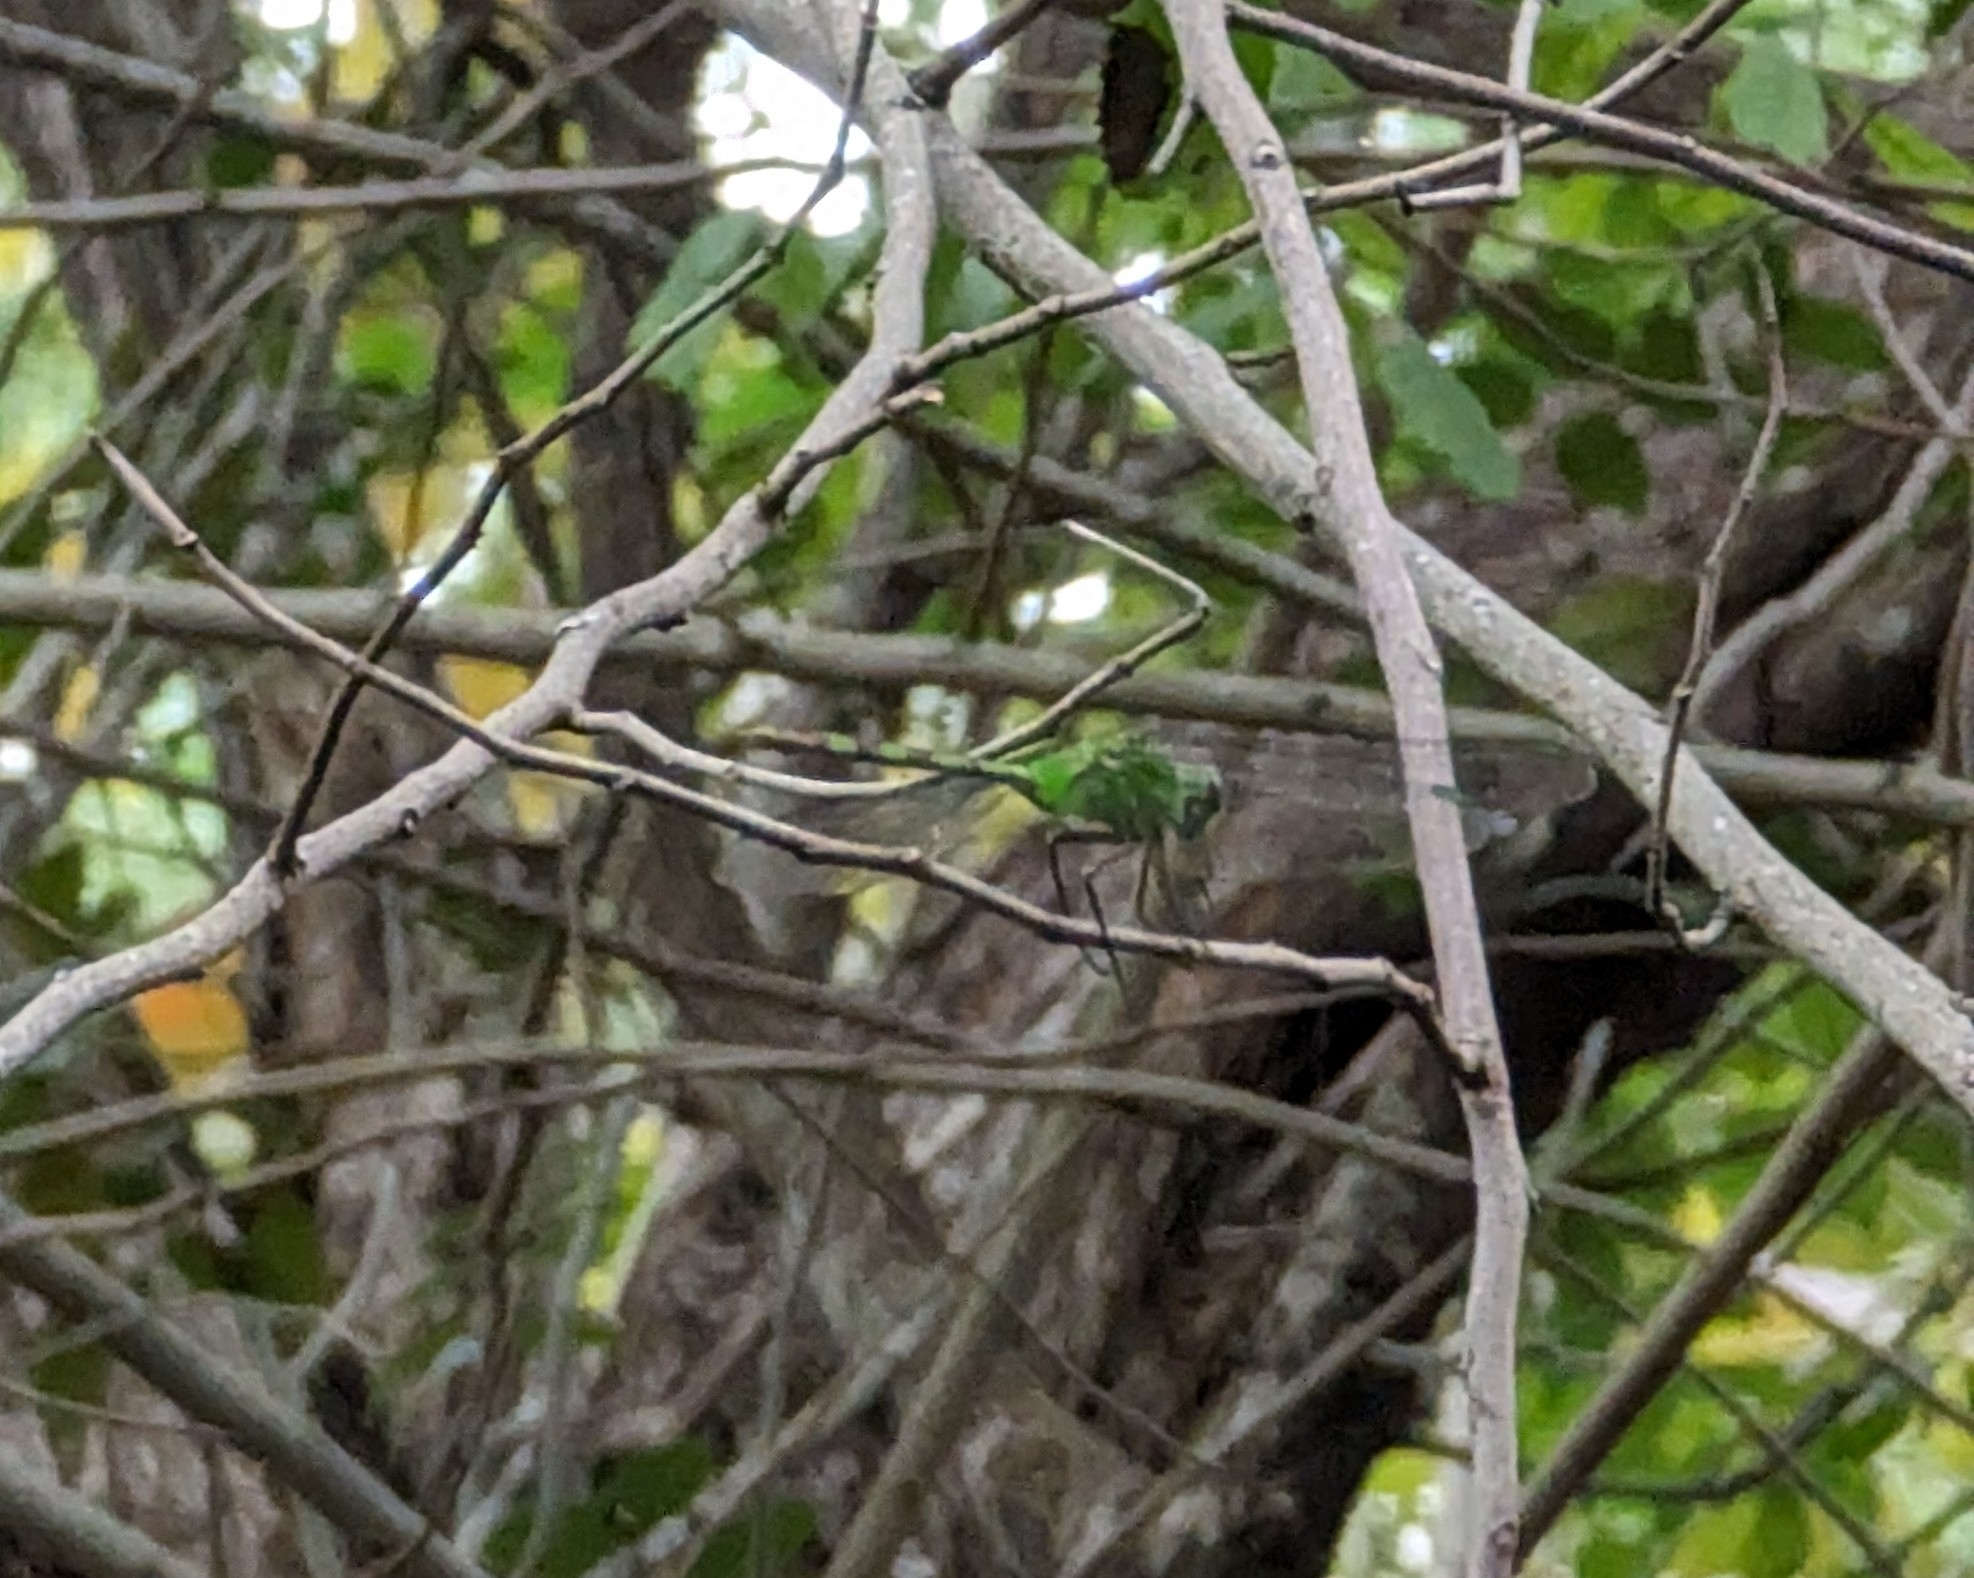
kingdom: Animalia
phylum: Arthropoda
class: Insecta
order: Odonata
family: Libellulidae
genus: Erythemis
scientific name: Erythemis vesiculosa
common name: Great pondhawk
